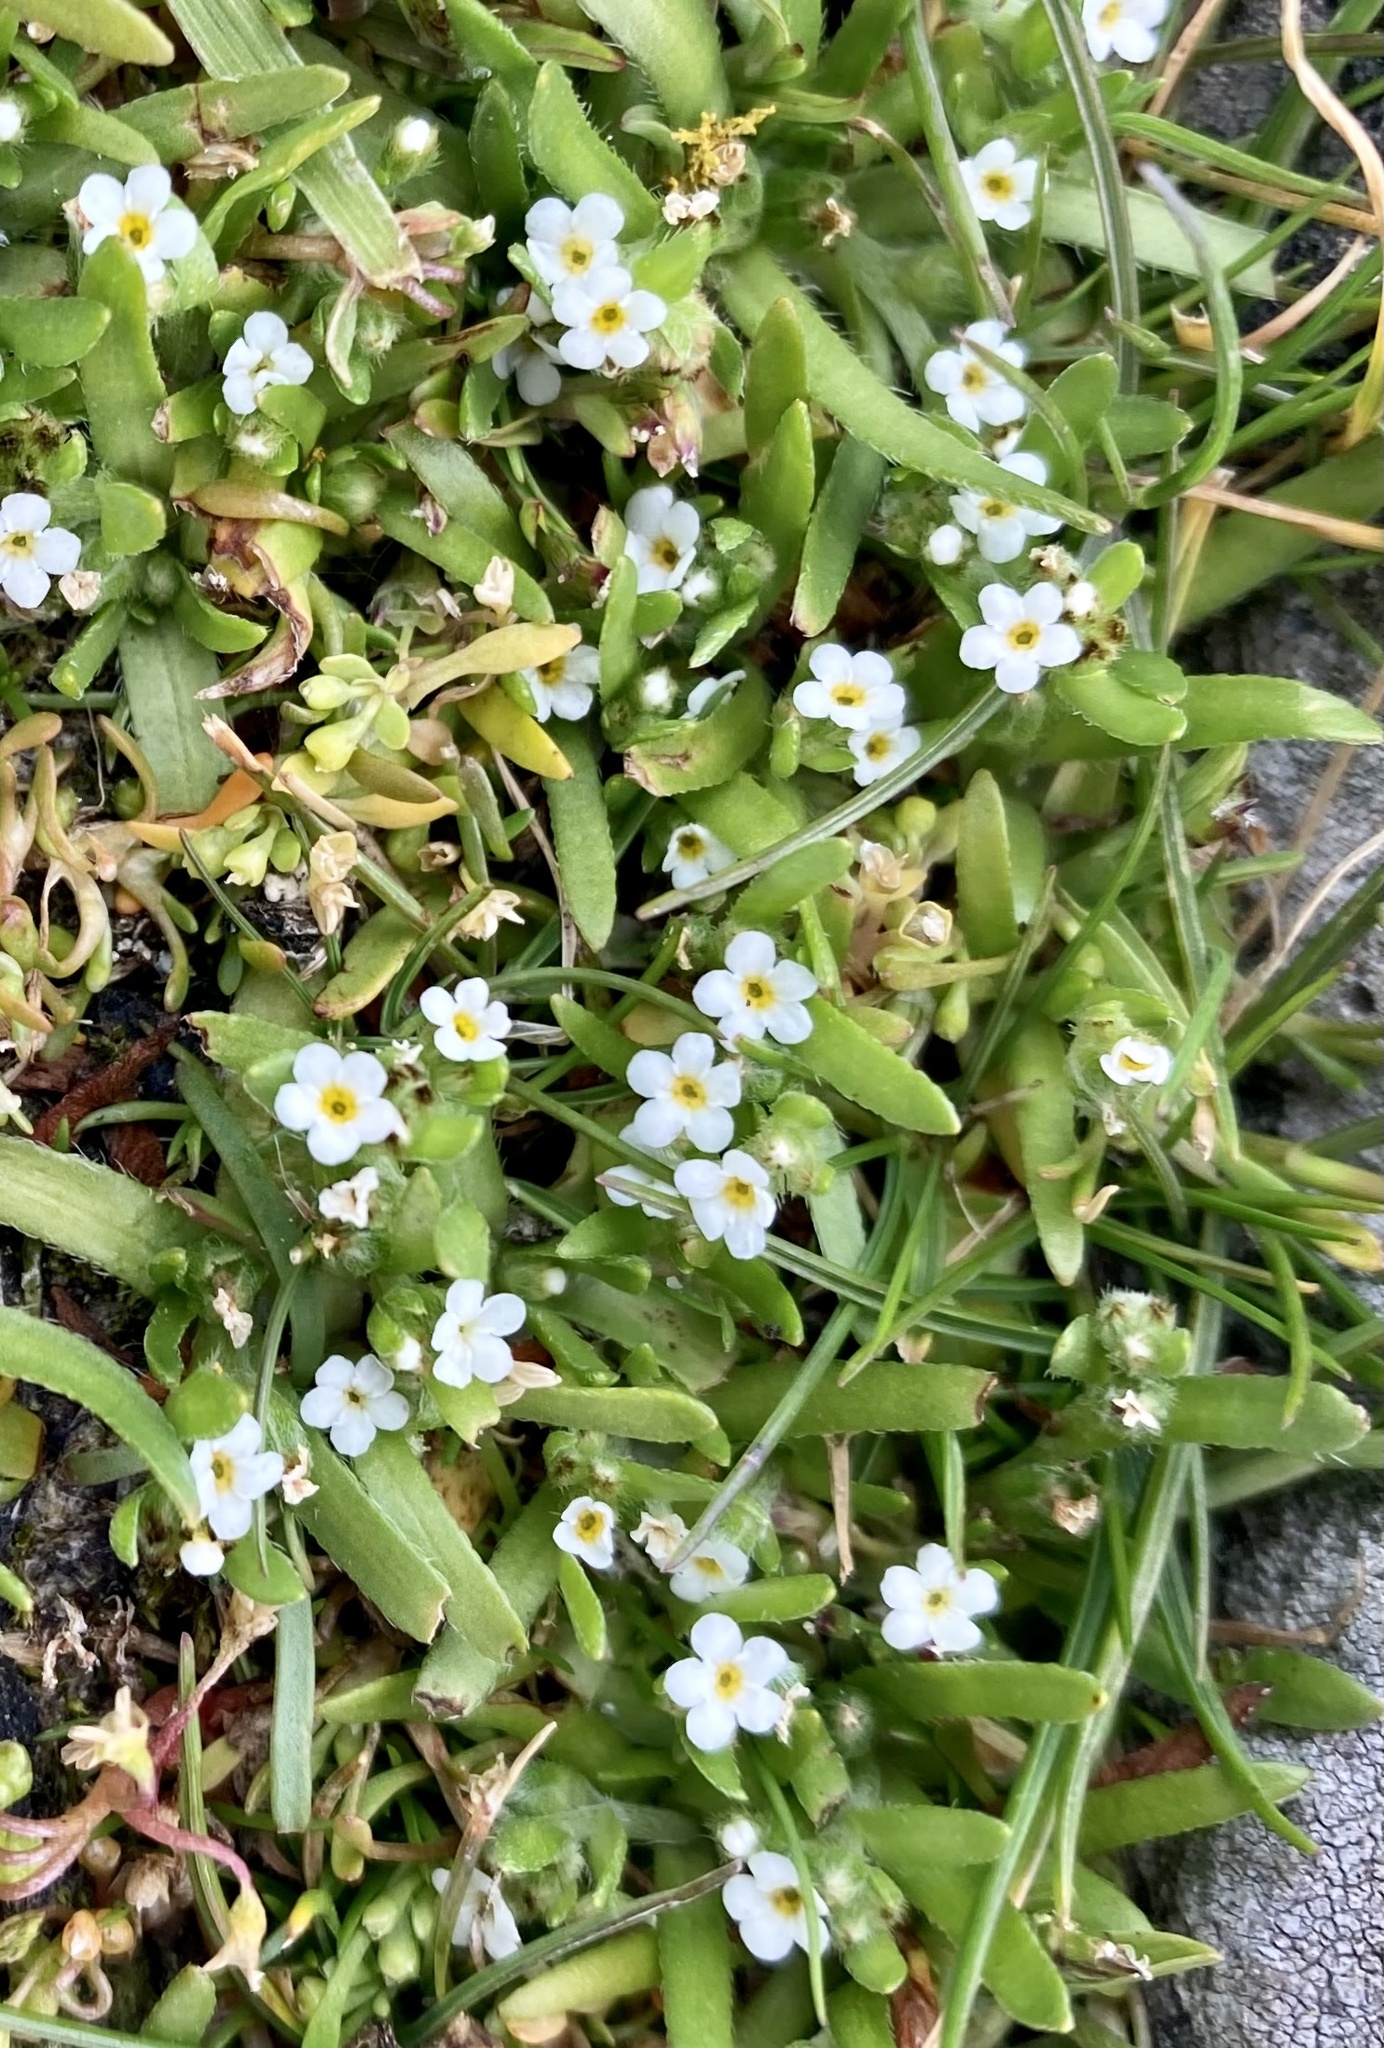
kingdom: Plantae
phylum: Tracheophyta
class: Magnoliopsida
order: Boraginales
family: Boraginaceae
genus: Plagiobothrys
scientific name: Plagiobothrys scouleri
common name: White forget-me-not
